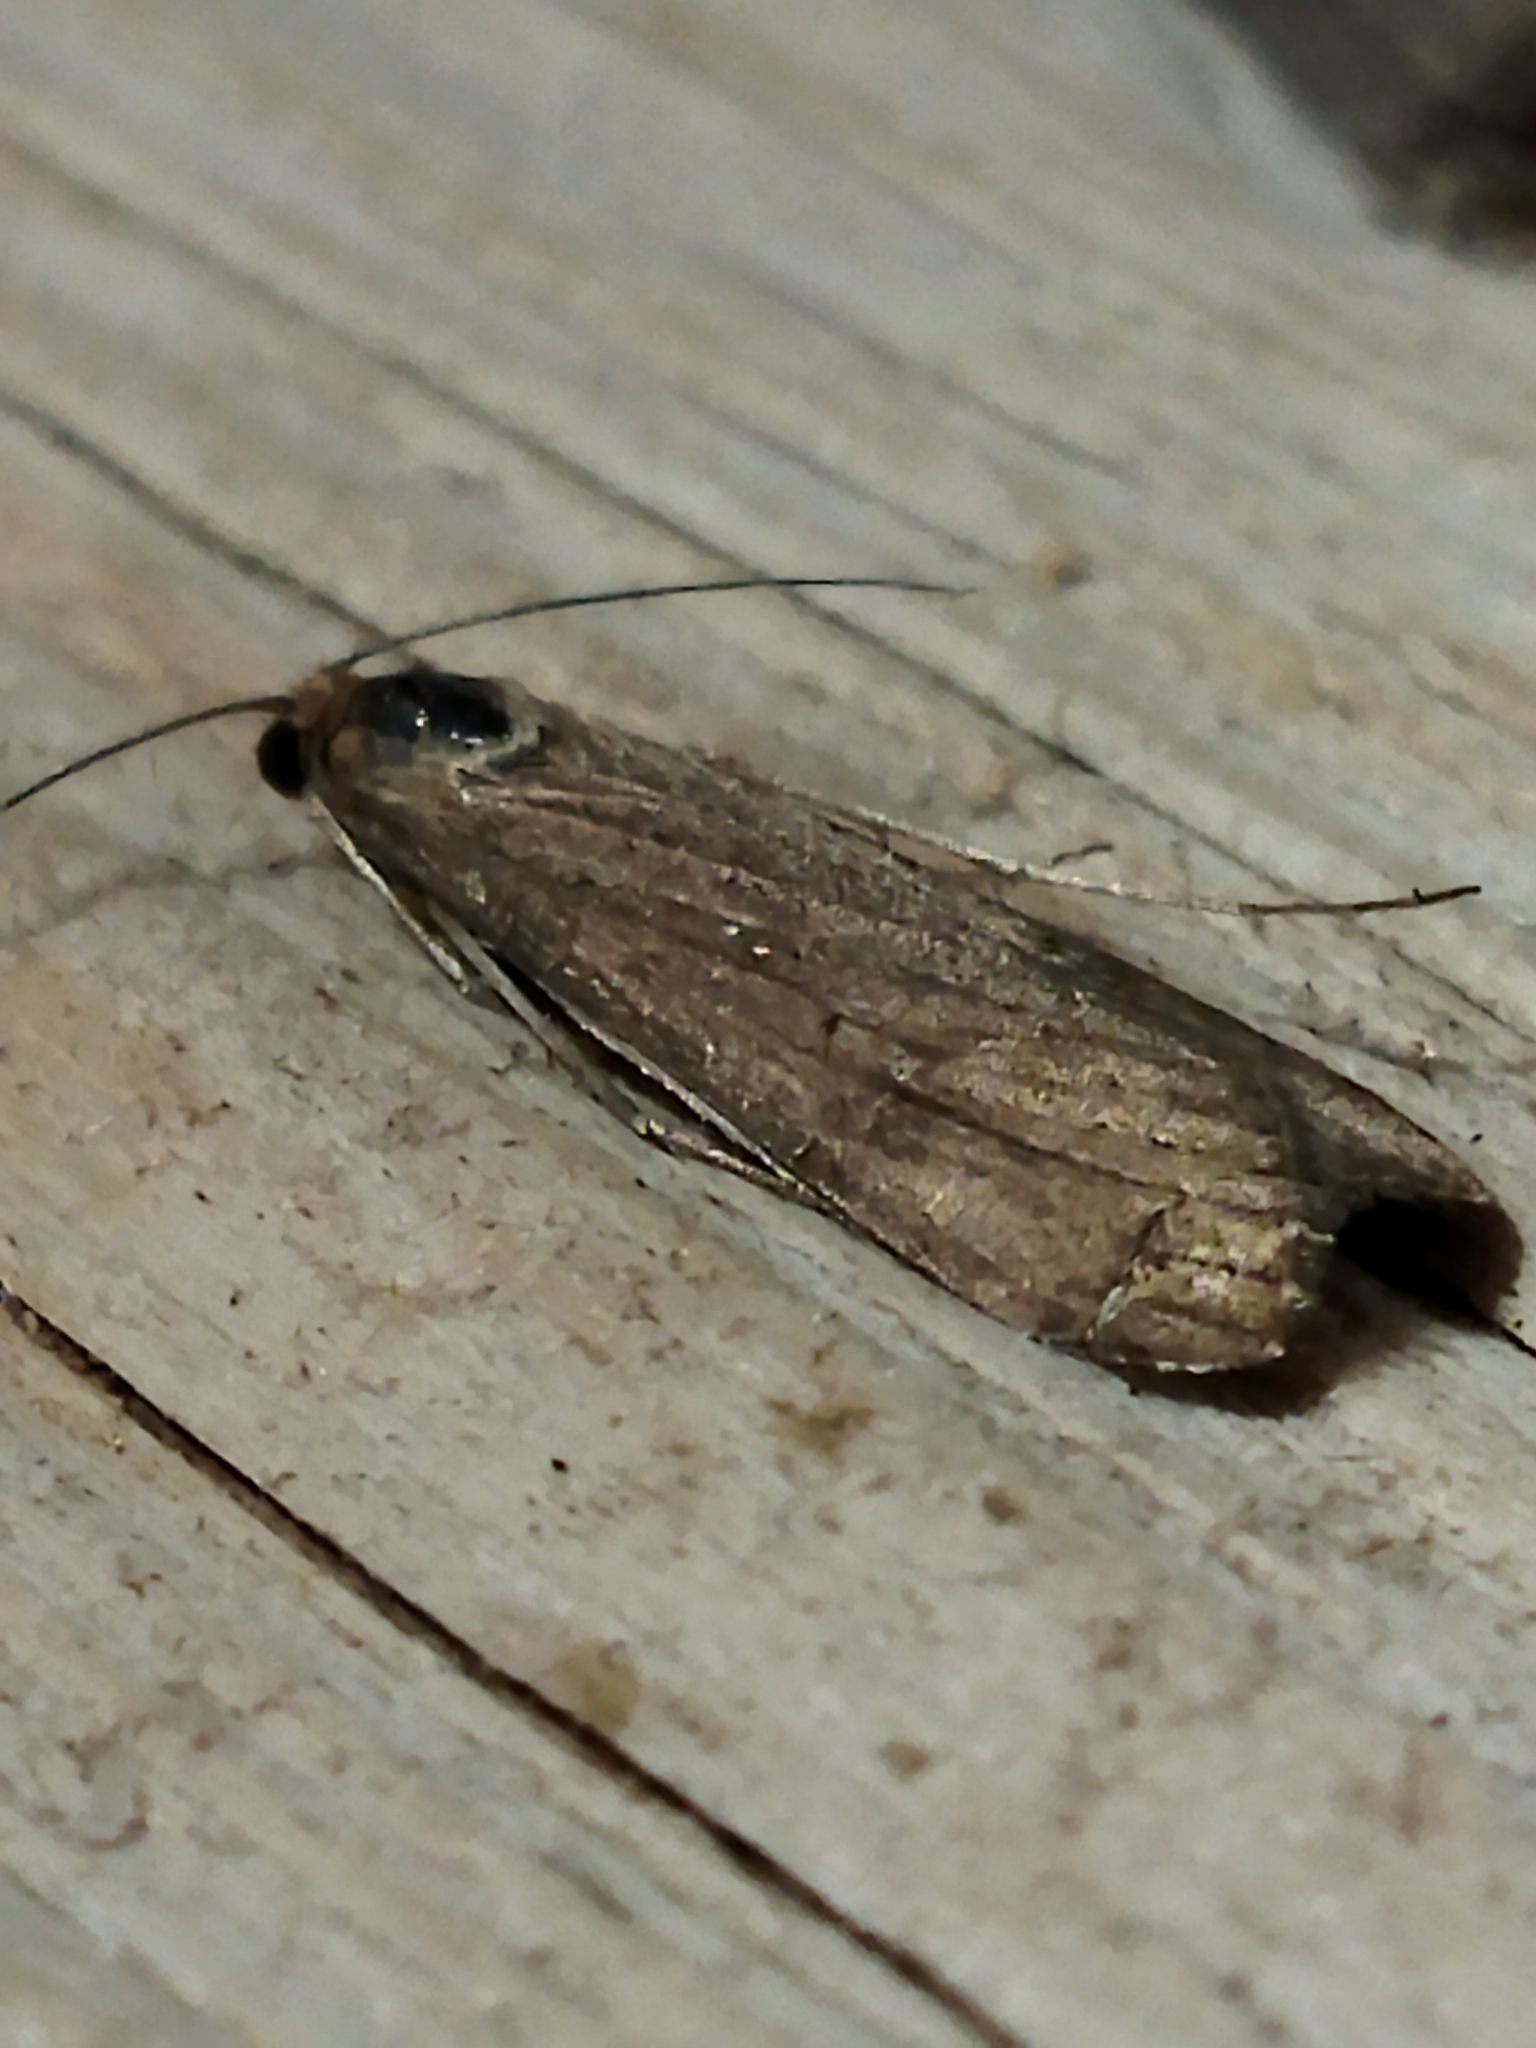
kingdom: Animalia
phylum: Arthropoda
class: Insecta
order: Lepidoptera
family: Crambidae
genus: Nomophila
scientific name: Nomophila noctuella
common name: Rush veneer
